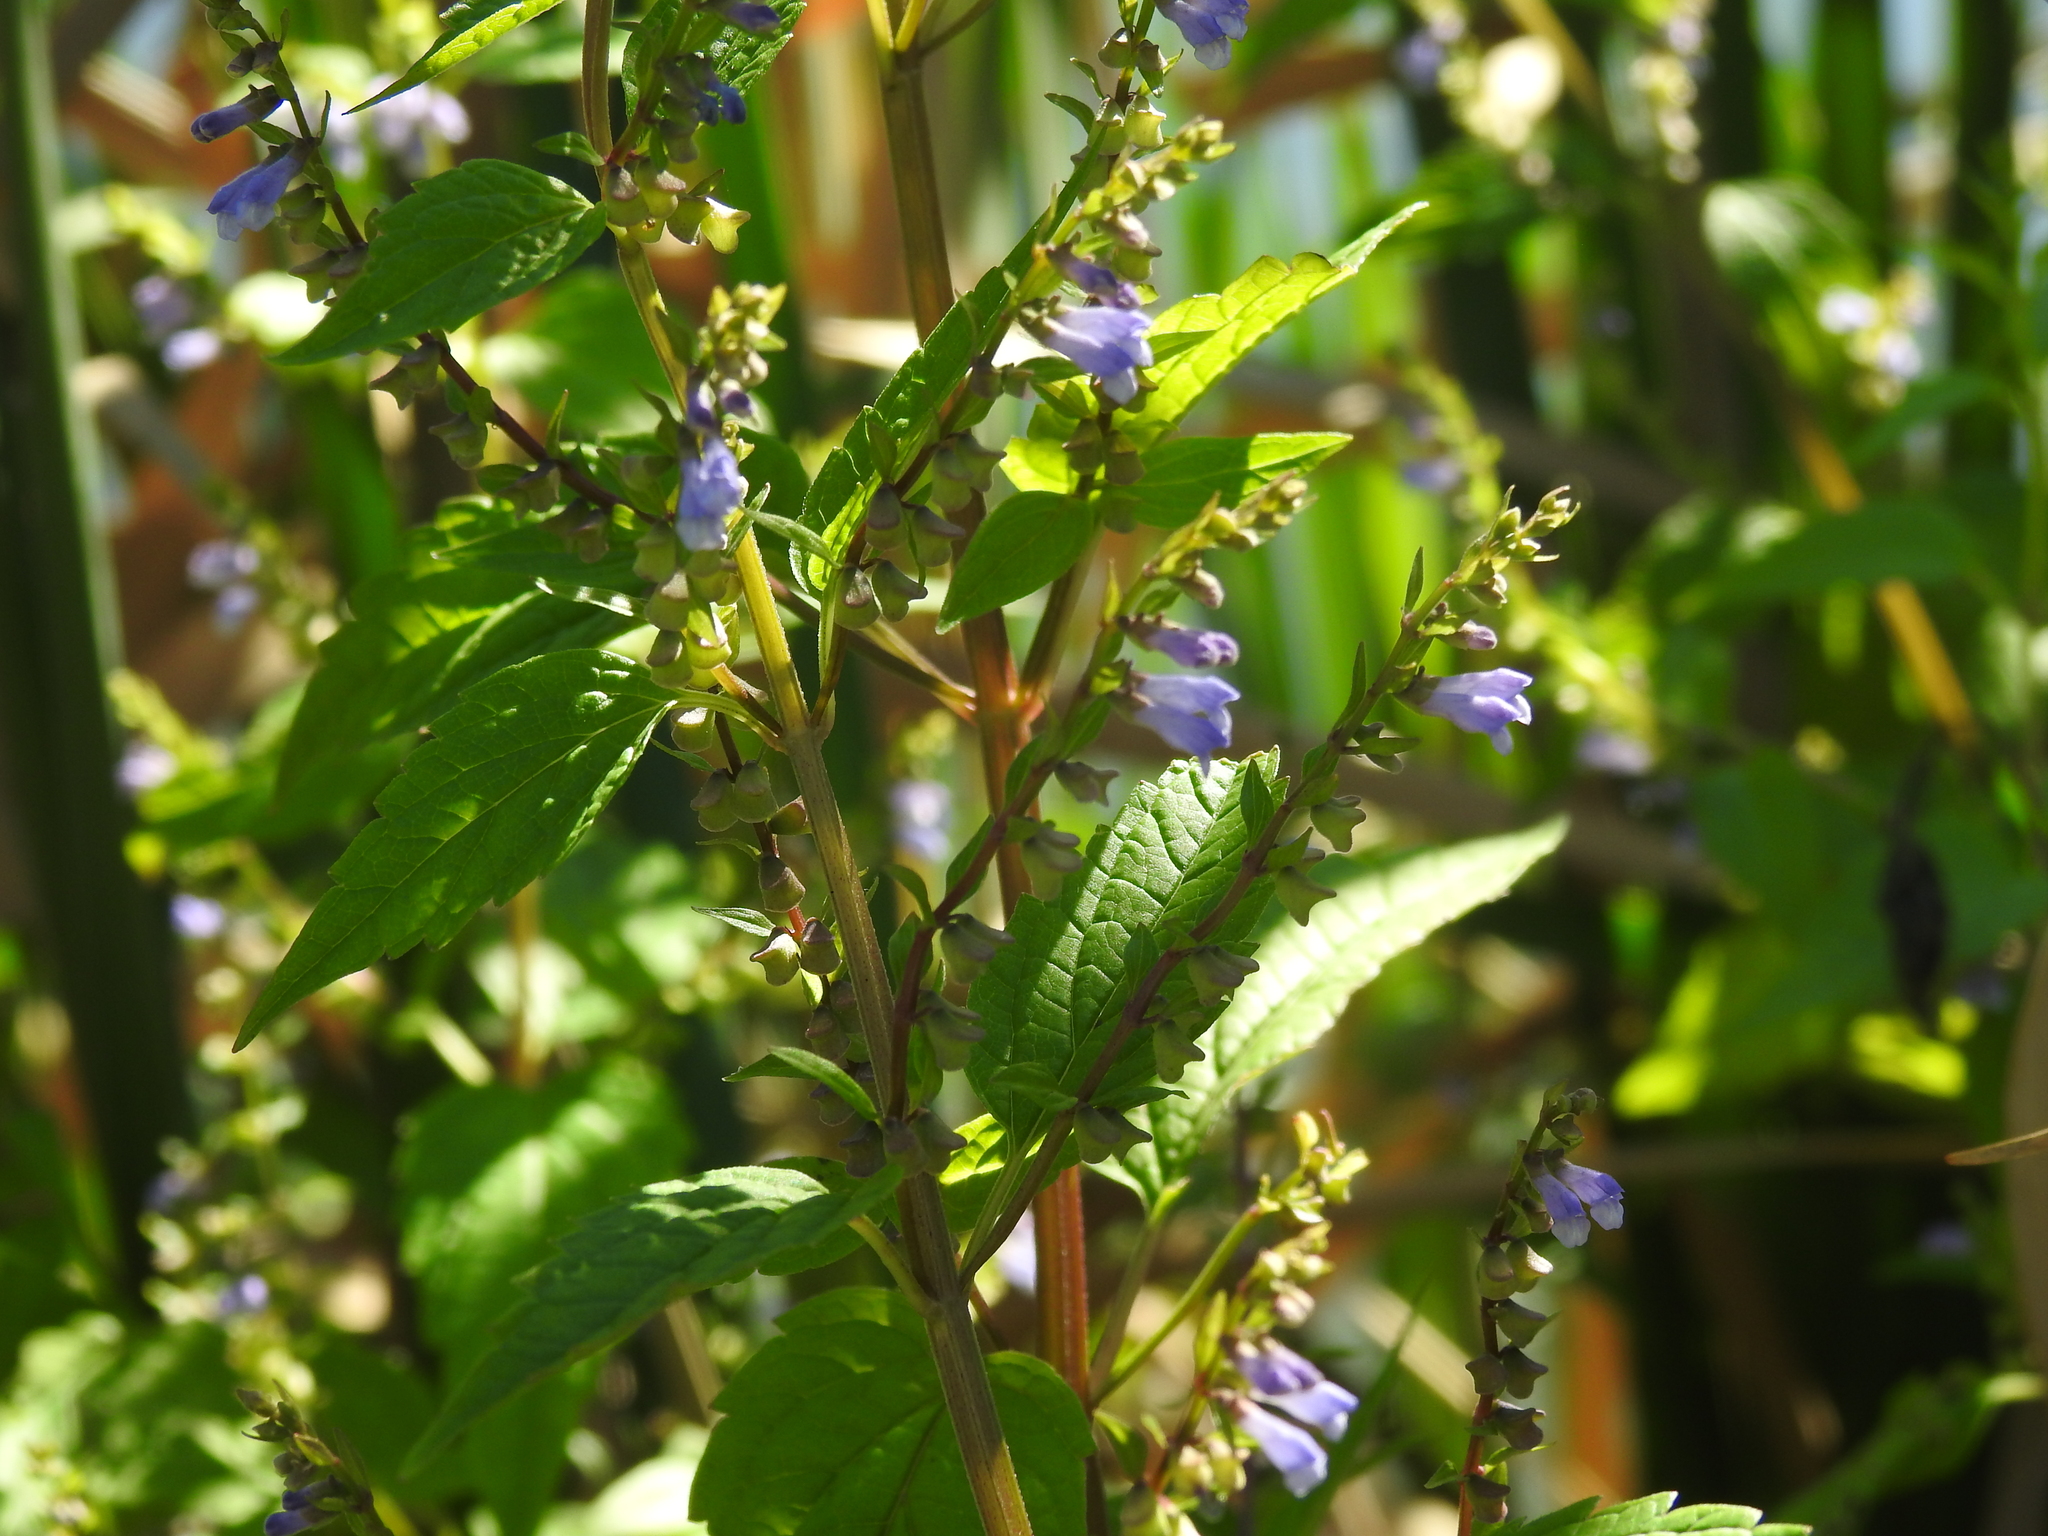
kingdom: Plantae
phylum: Tracheophyta
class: Magnoliopsida
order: Lamiales
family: Lamiaceae
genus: Scutellaria
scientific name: Scutellaria lateriflora
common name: Blue skullcap
